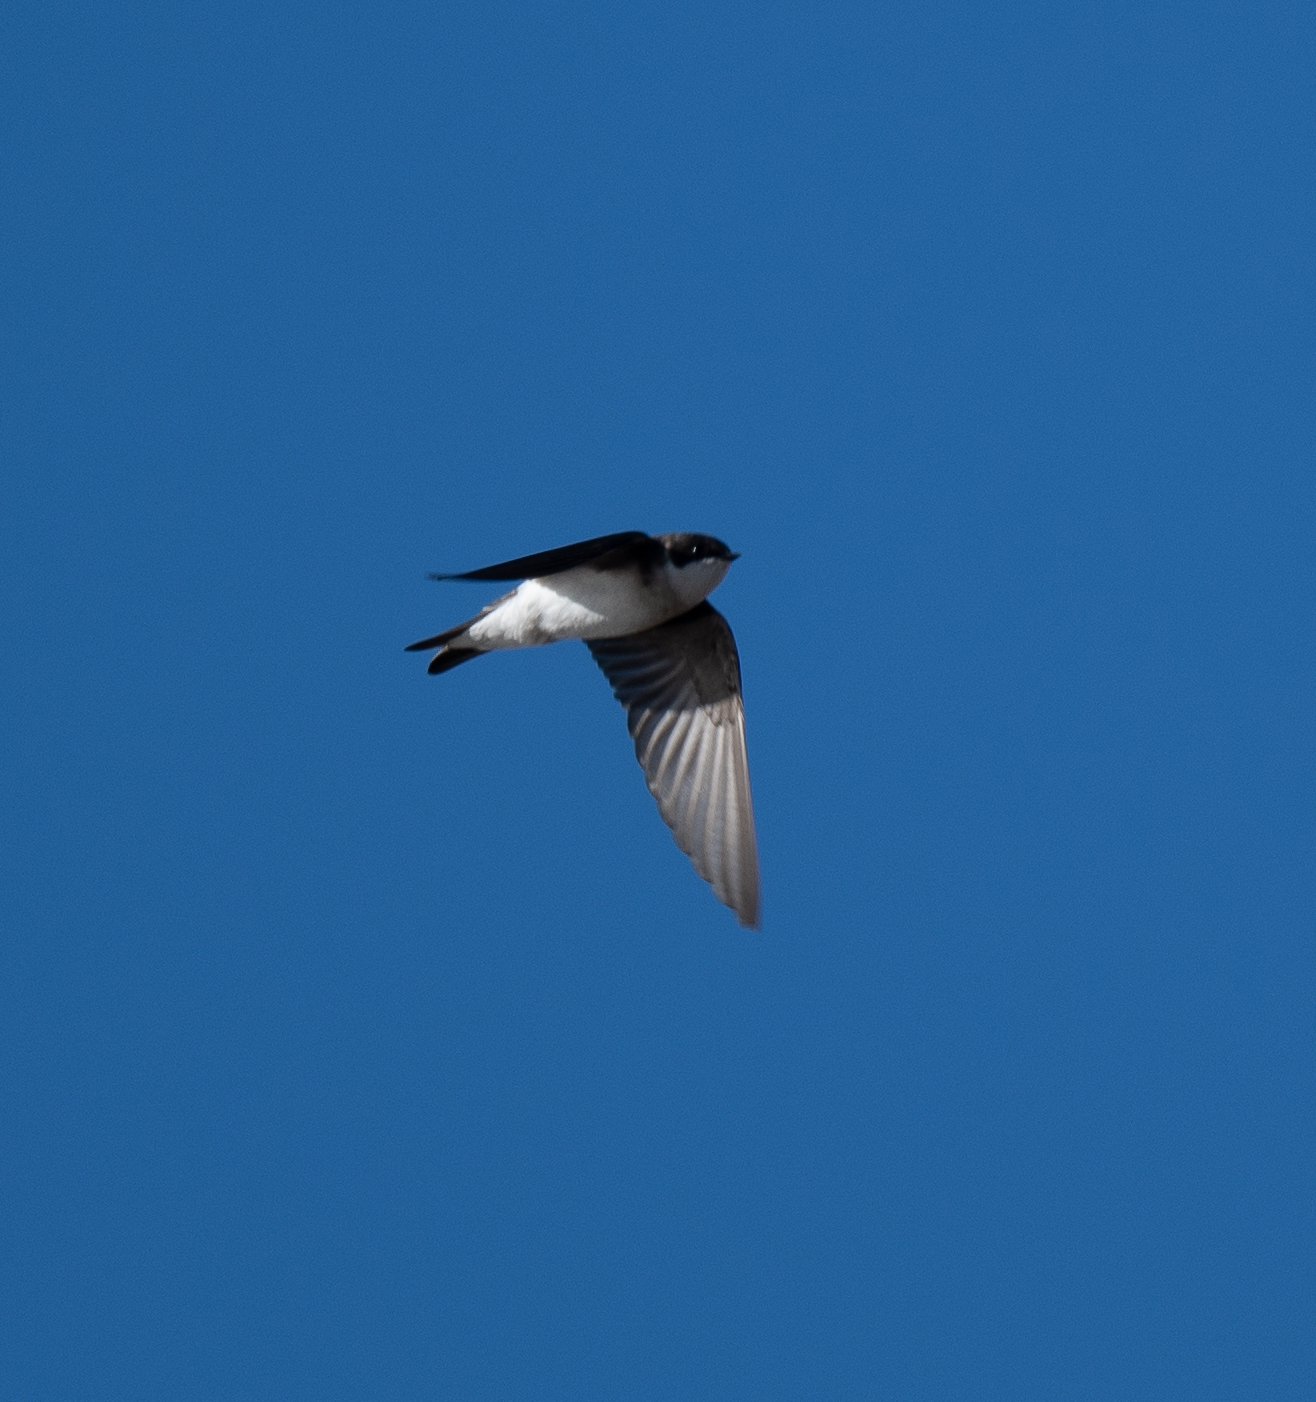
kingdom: Animalia
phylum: Chordata
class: Aves
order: Passeriformes
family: Hirundinidae
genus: Tachycineta
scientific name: Tachycineta bicolor
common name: Tree swallow
